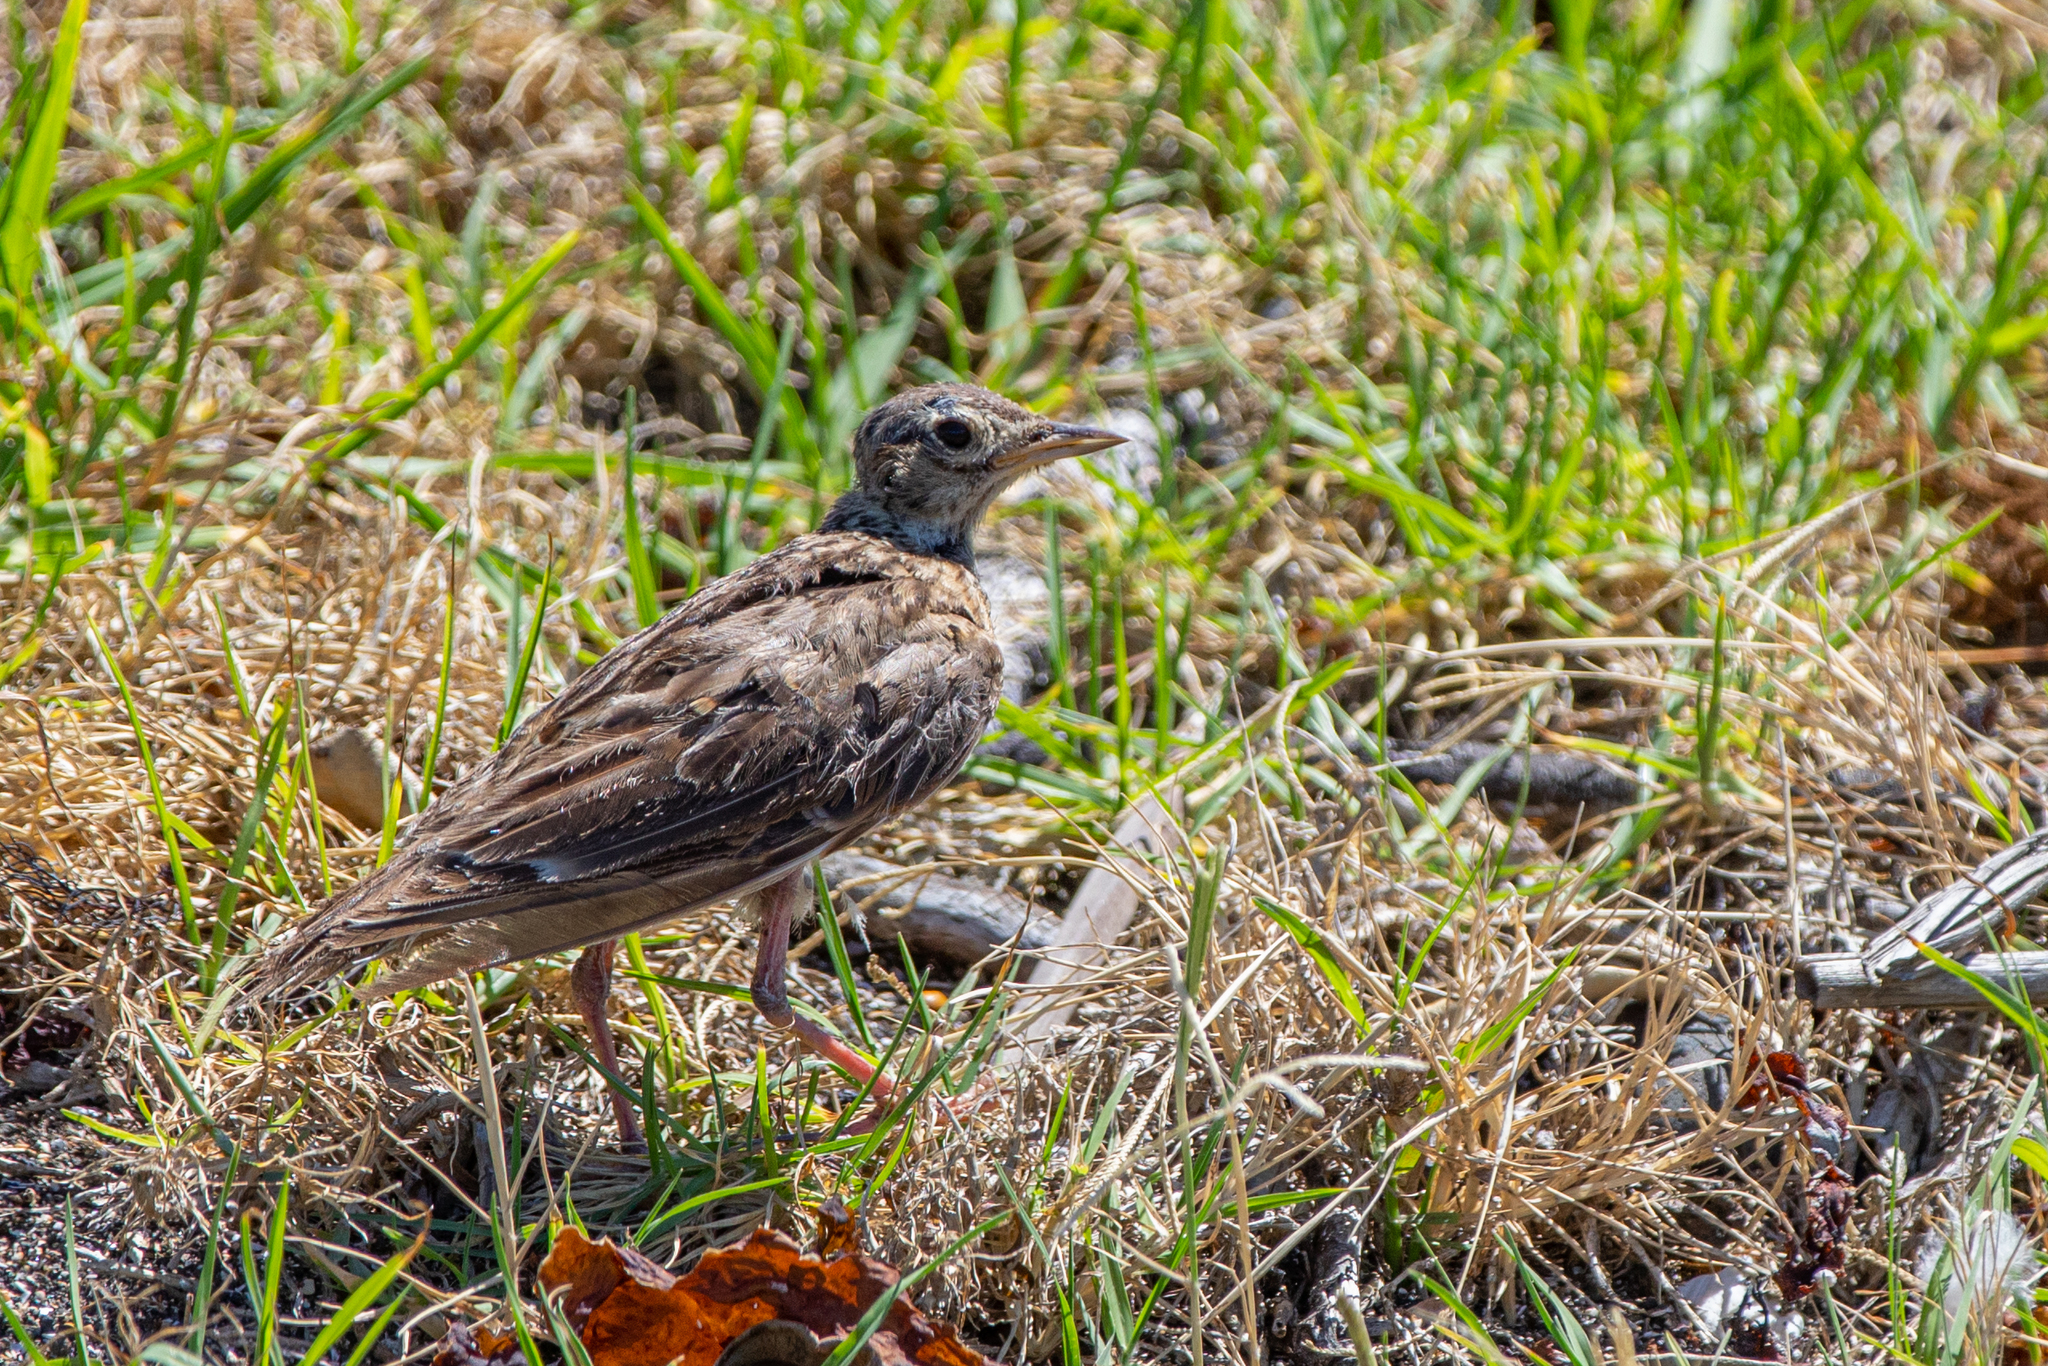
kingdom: Animalia
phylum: Chordata
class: Aves
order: Passeriformes
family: Alaudidae
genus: Alauda
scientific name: Alauda arvensis
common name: Eurasian skylark
